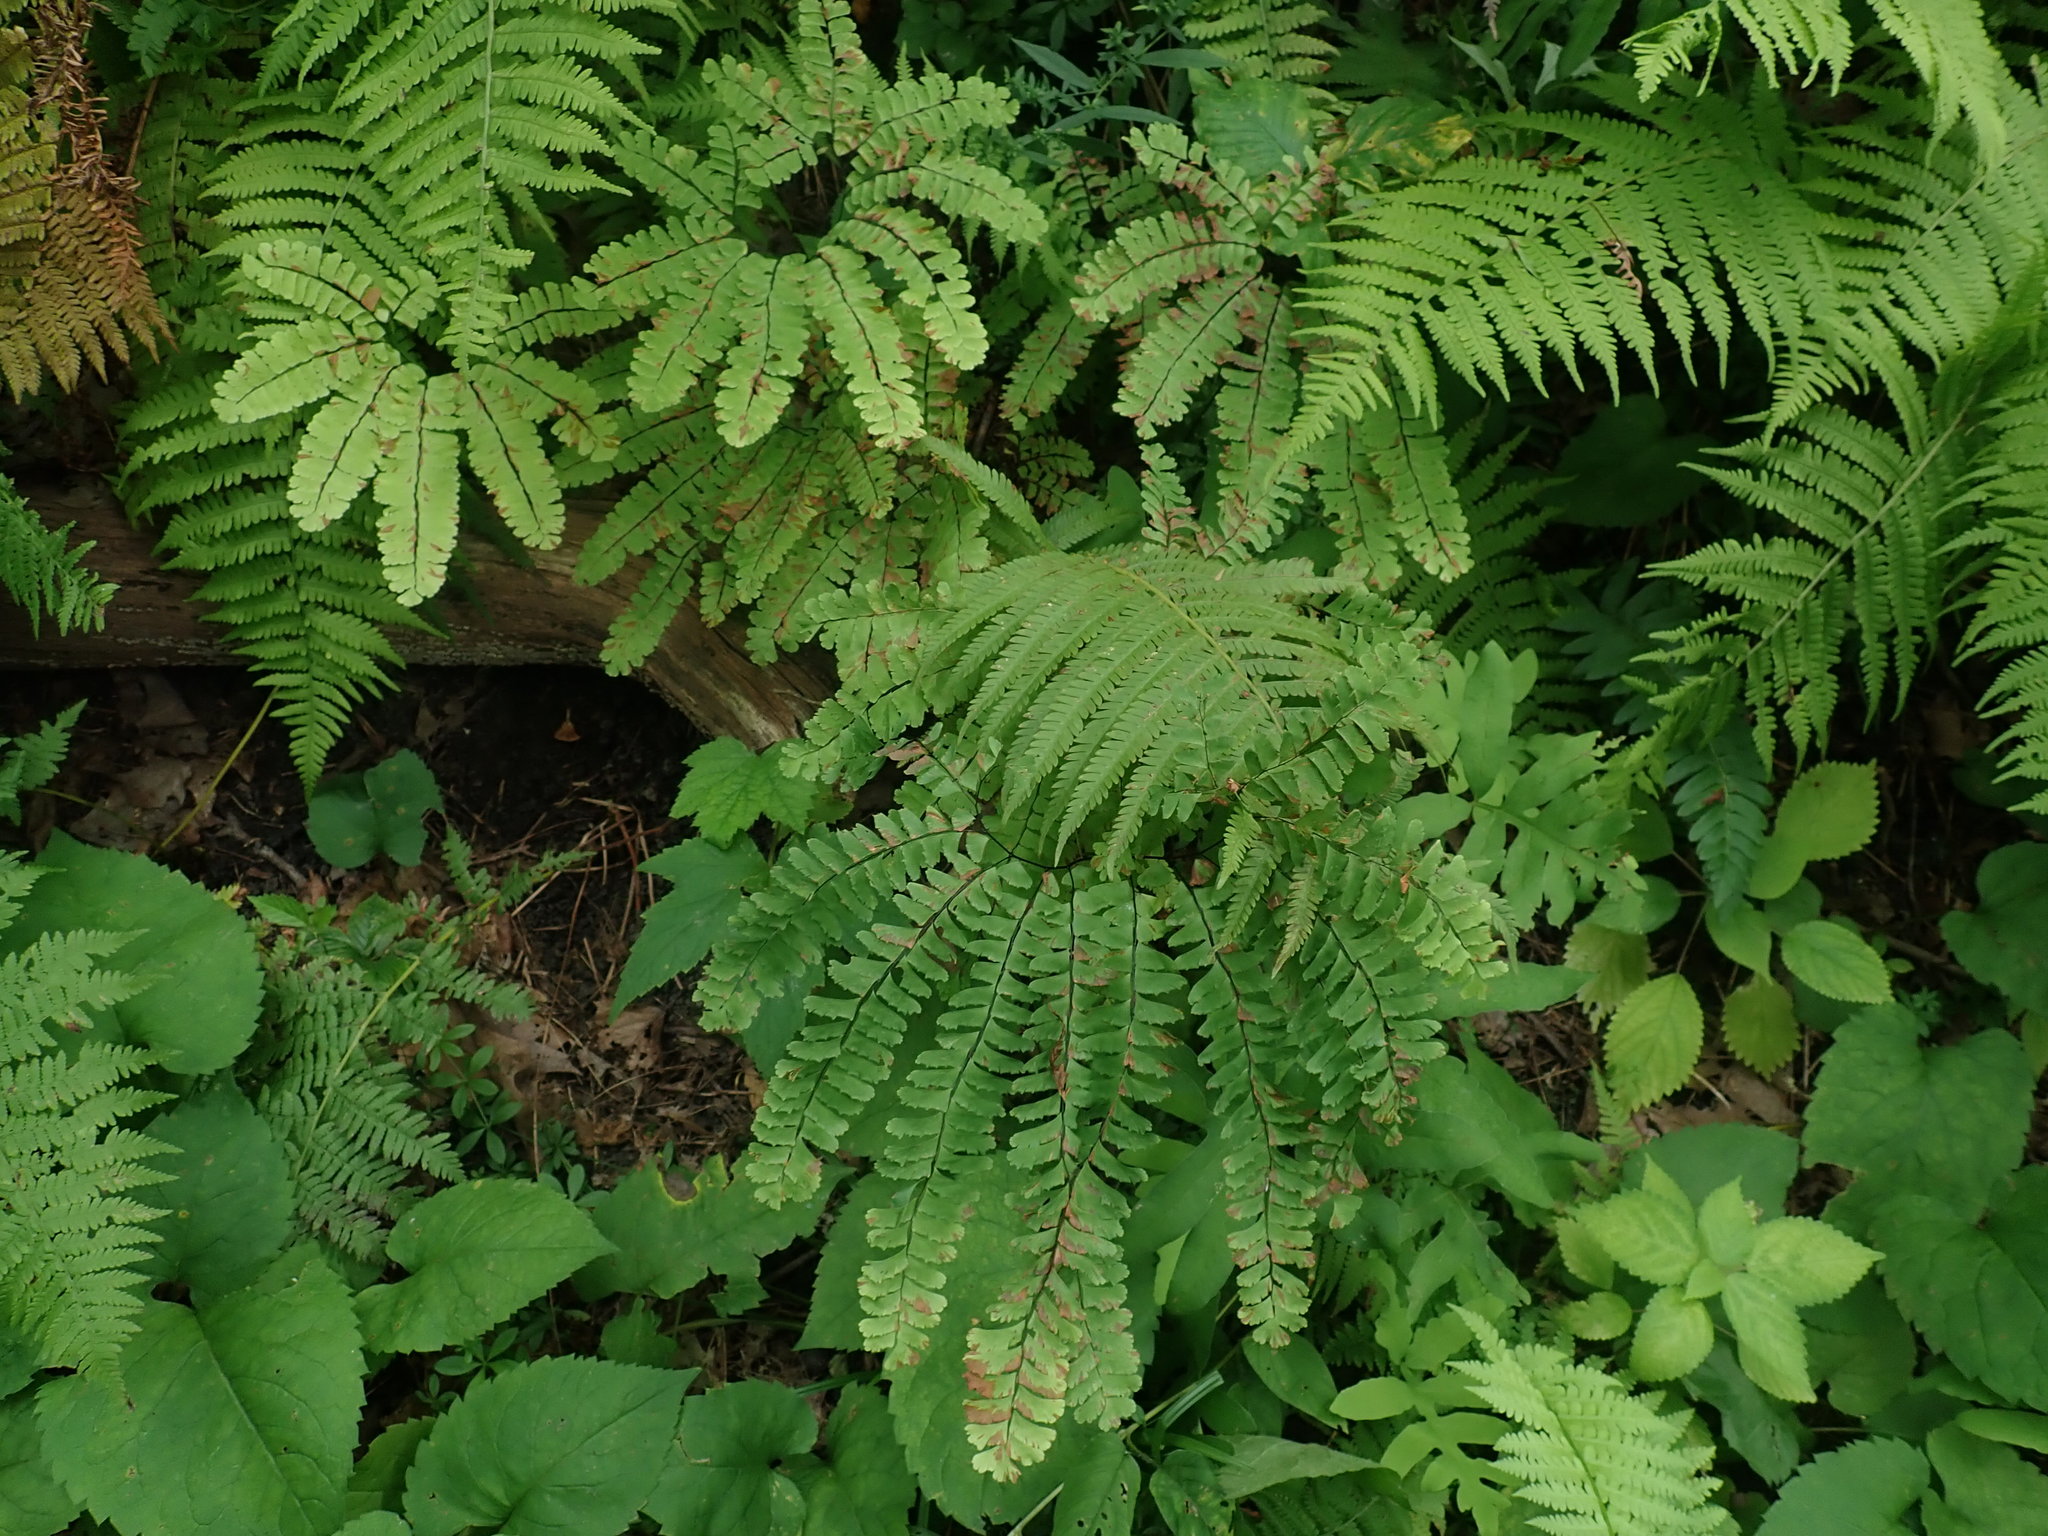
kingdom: Plantae
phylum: Tracheophyta
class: Polypodiopsida
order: Polypodiales
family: Pteridaceae
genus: Adiantum
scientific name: Adiantum pedatum
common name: Five-finger fern
